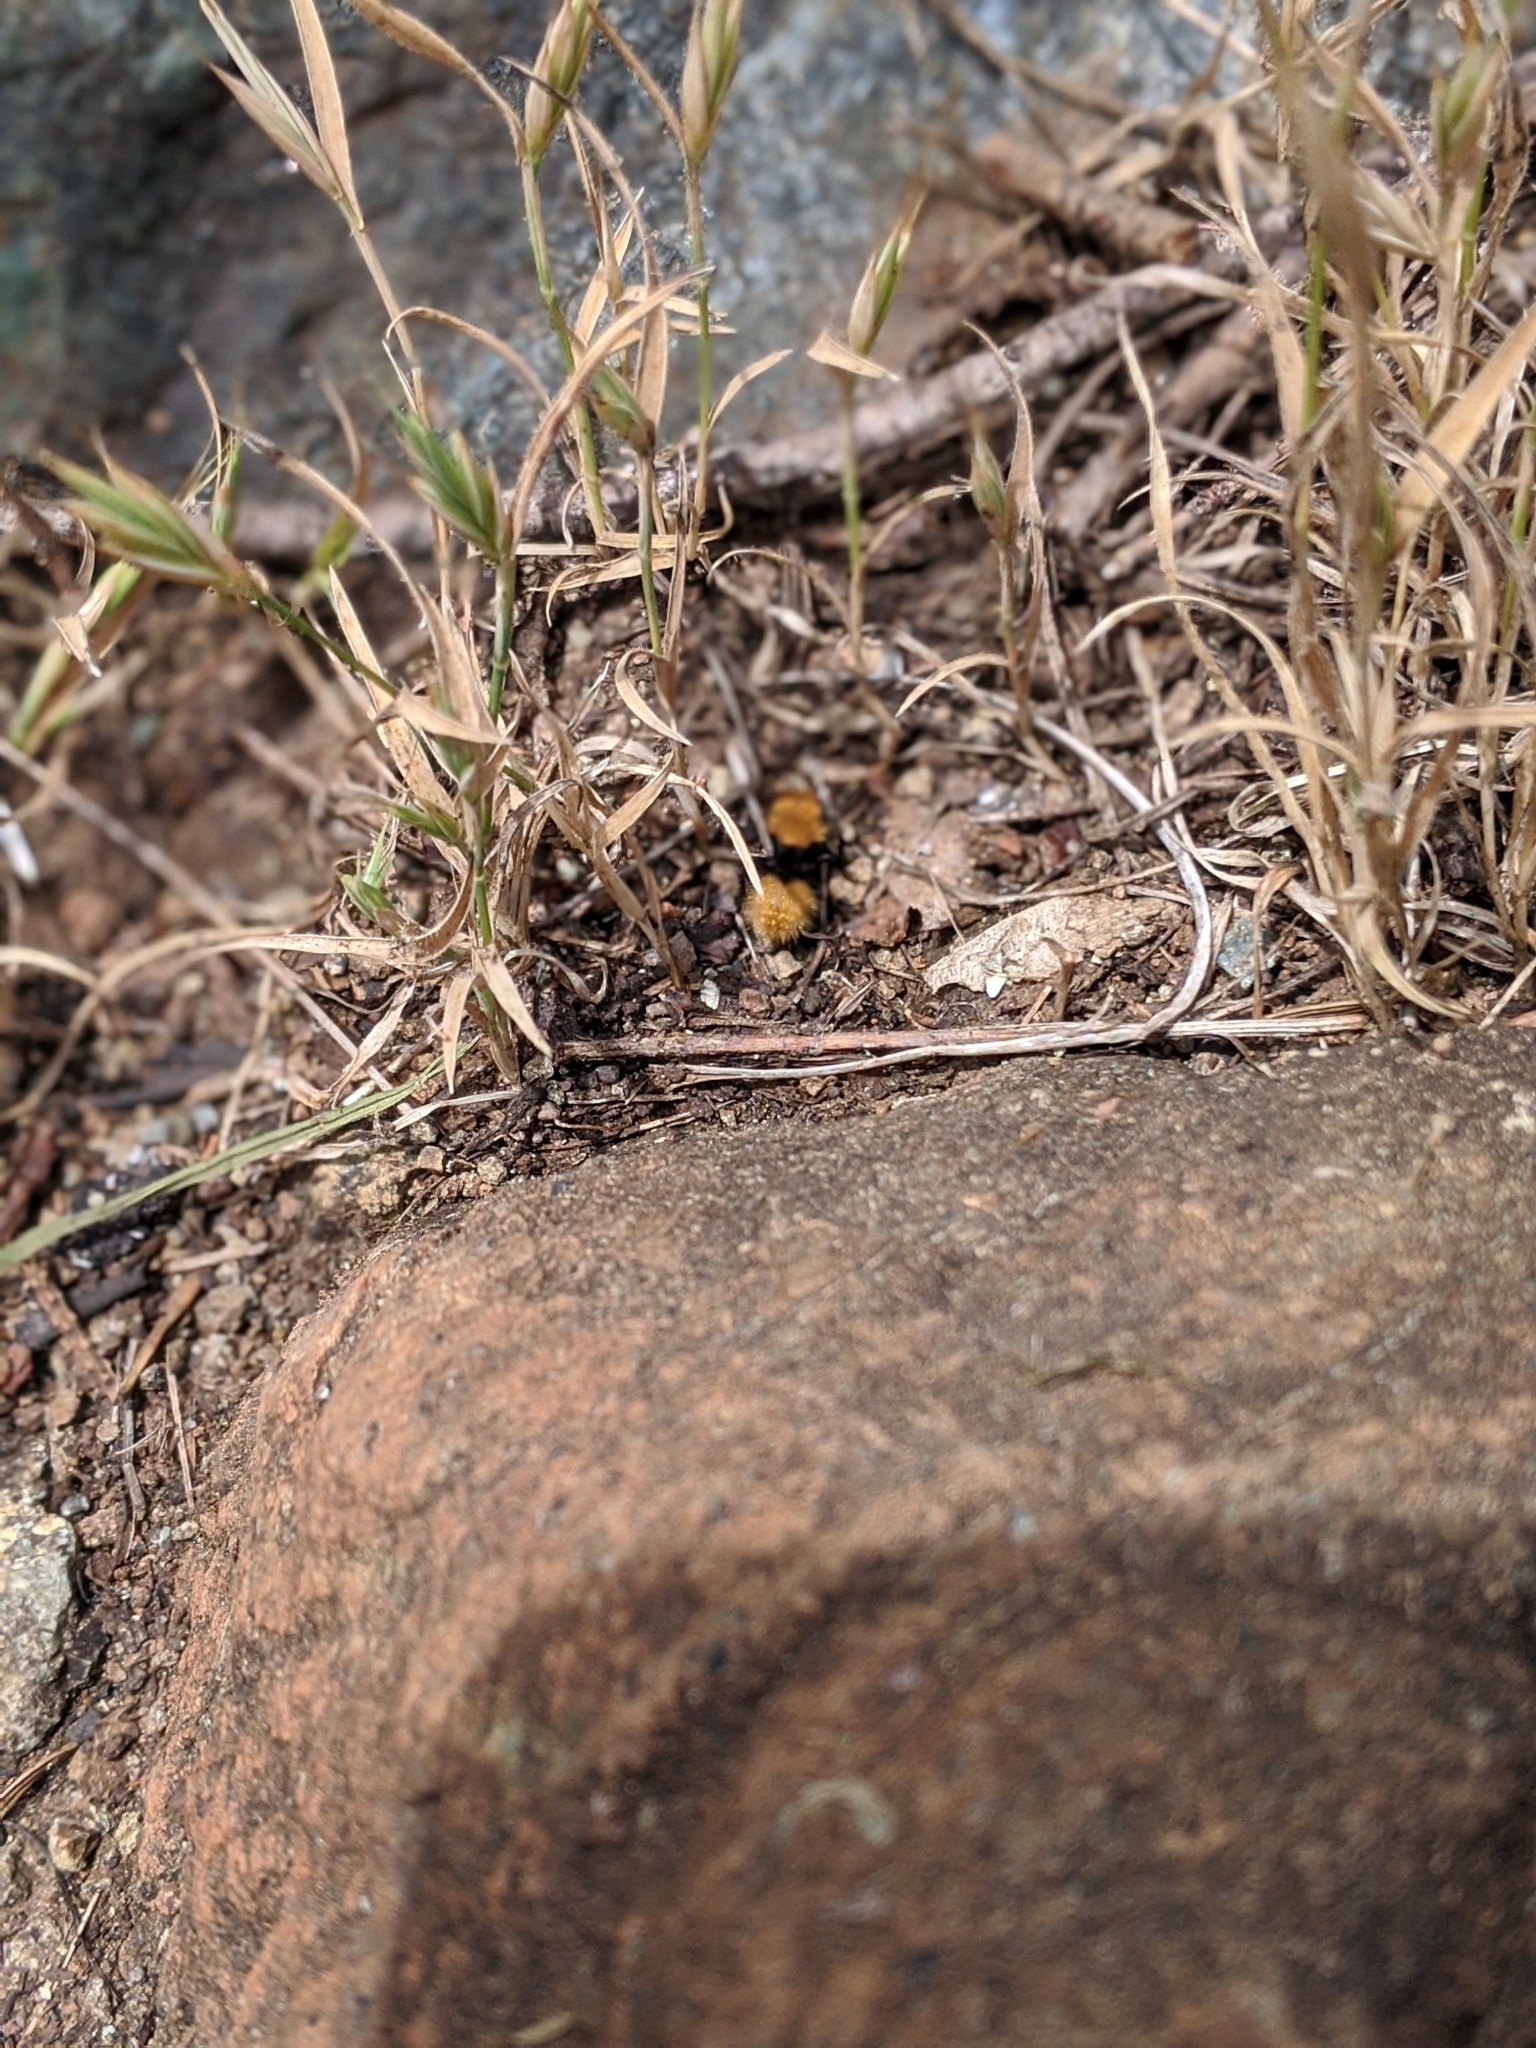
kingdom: Animalia
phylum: Arthropoda
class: Insecta
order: Hymenoptera
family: Mutillidae
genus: Dasymutilla
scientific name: Dasymutilla
